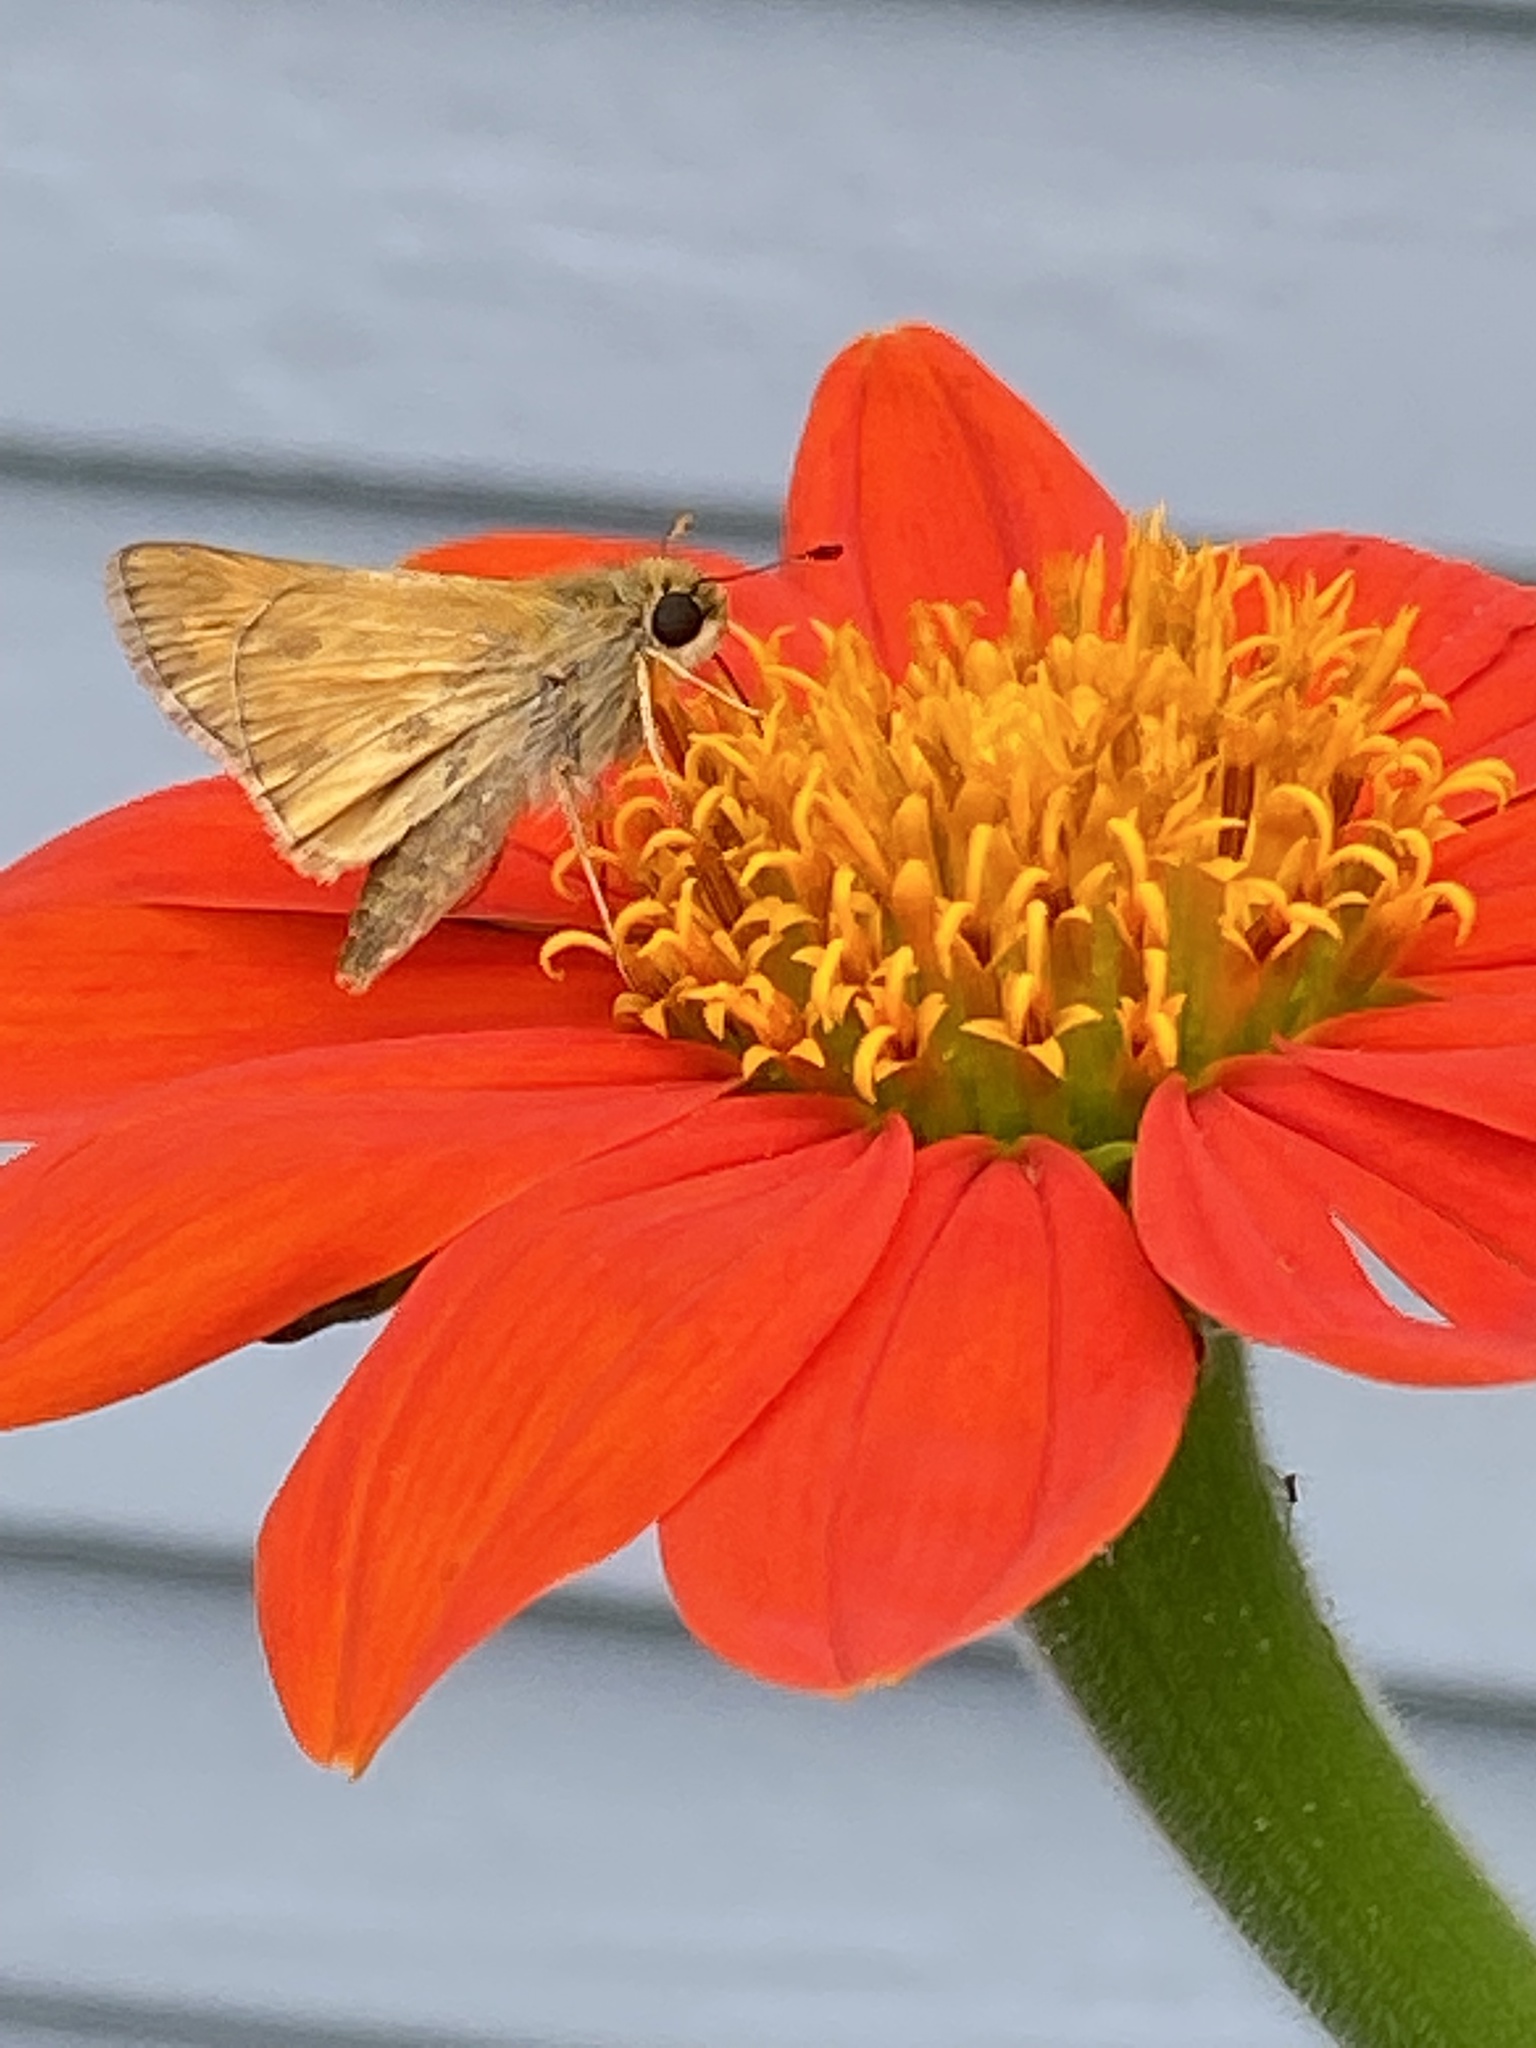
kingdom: Animalia
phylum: Arthropoda
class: Insecta
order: Lepidoptera
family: Hesperiidae
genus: Atalopedes
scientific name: Atalopedes
